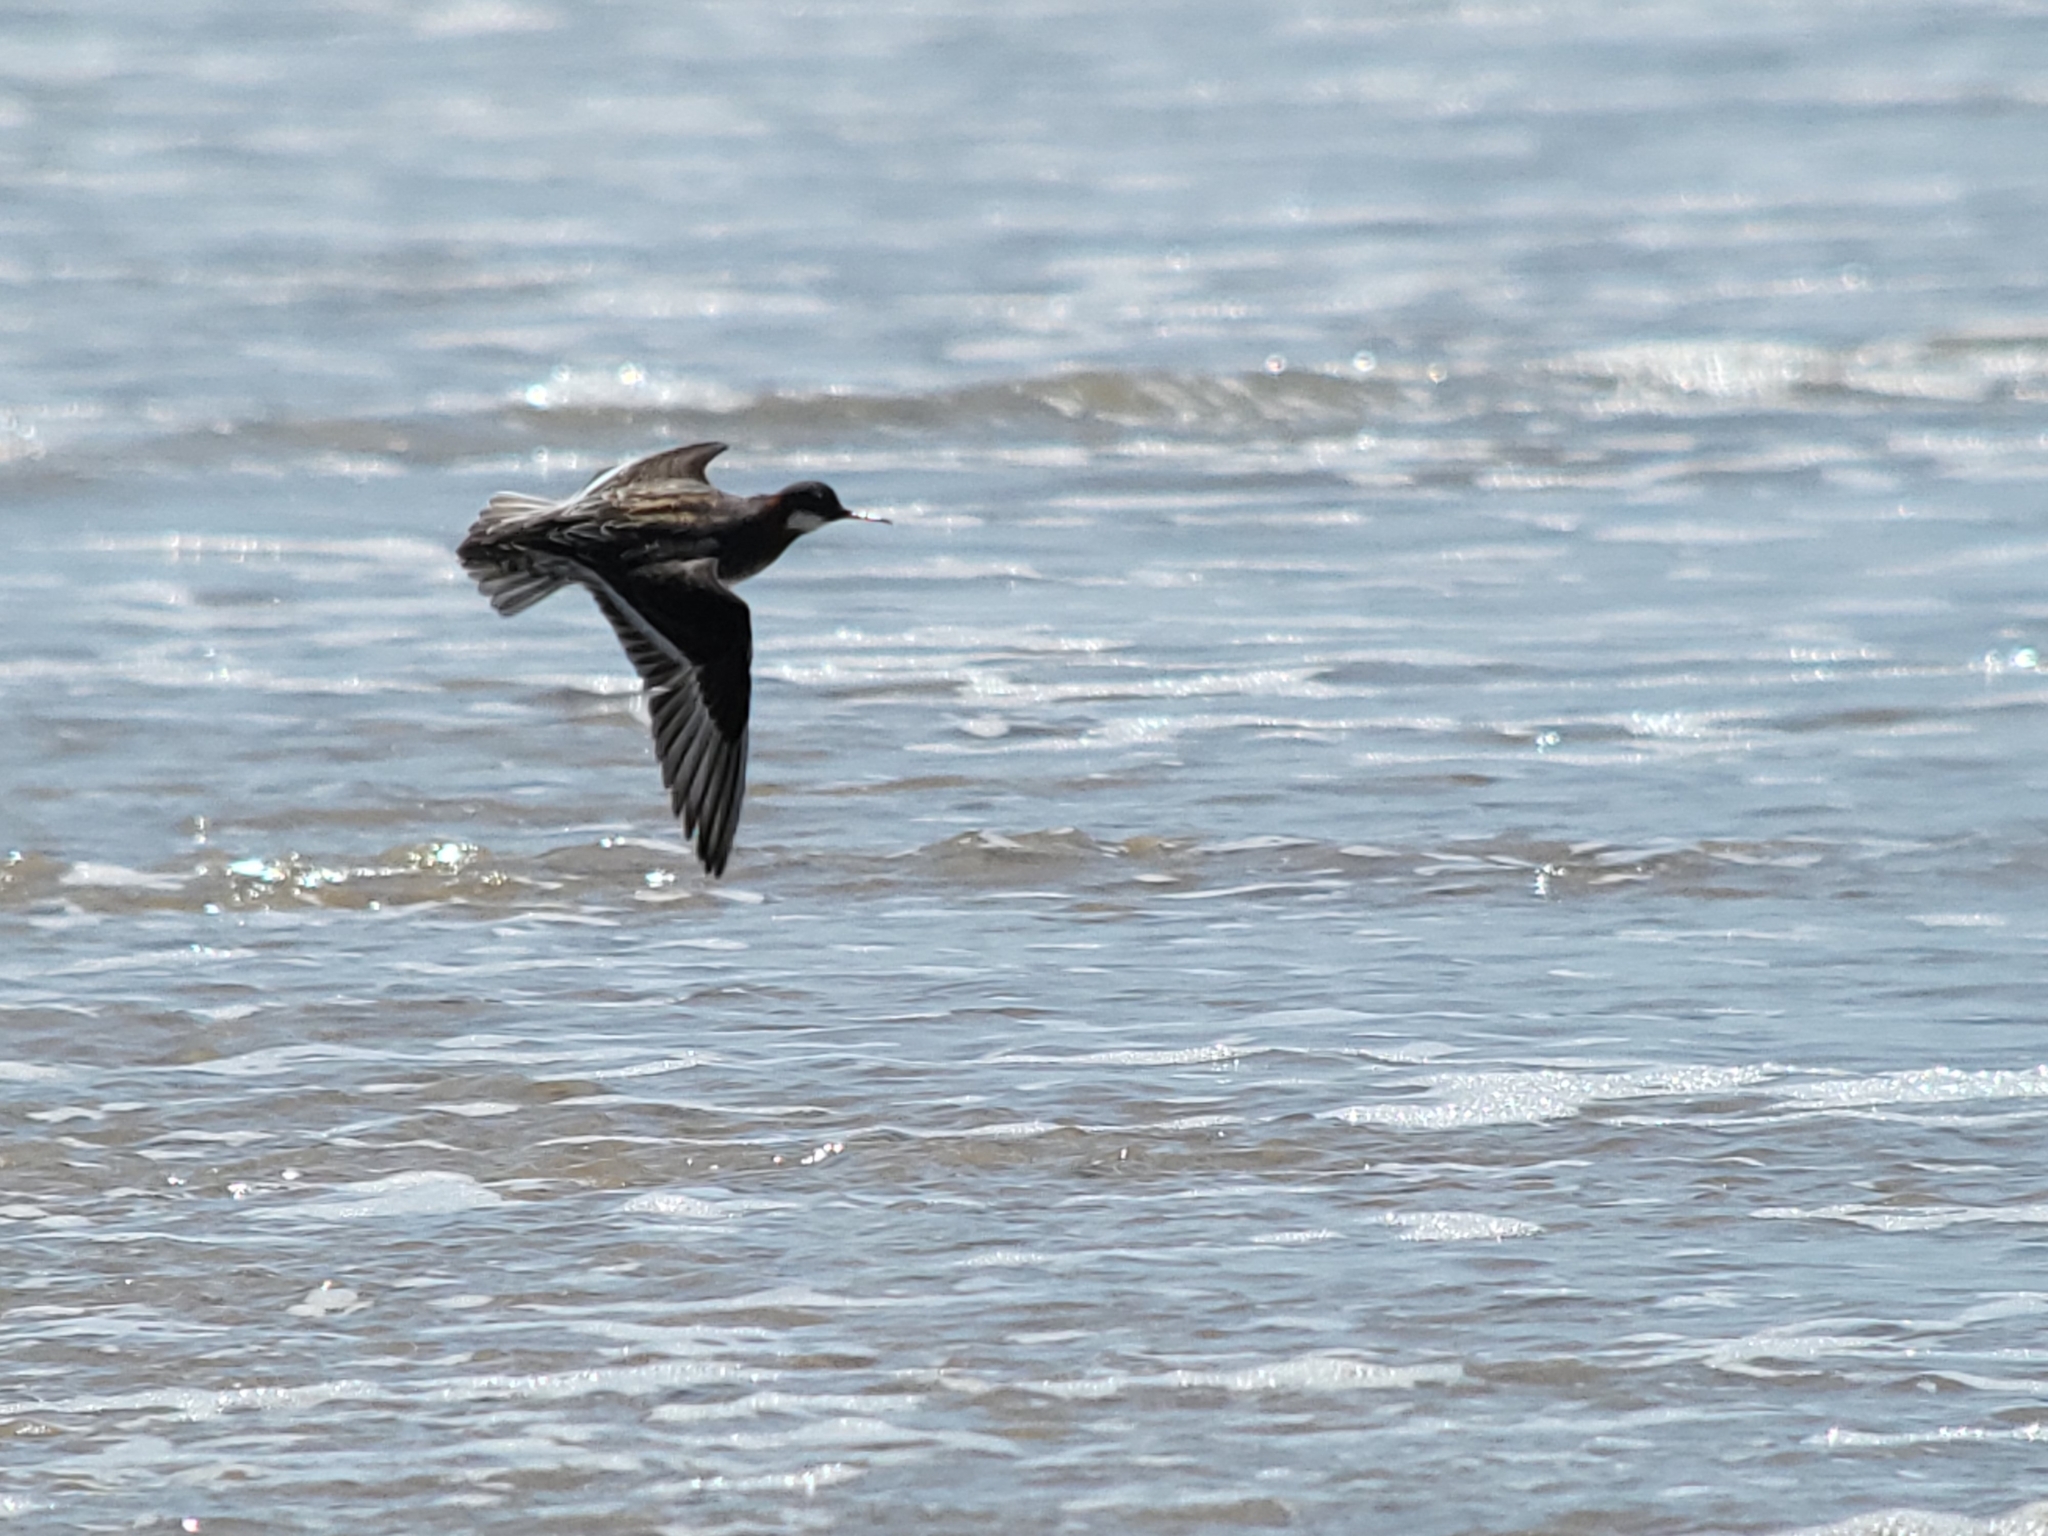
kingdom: Animalia
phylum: Chordata
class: Aves
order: Charadriiformes
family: Scolopacidae
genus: Phalaropus
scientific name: Phalaropus lobatus
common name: Red-necked phalarope
